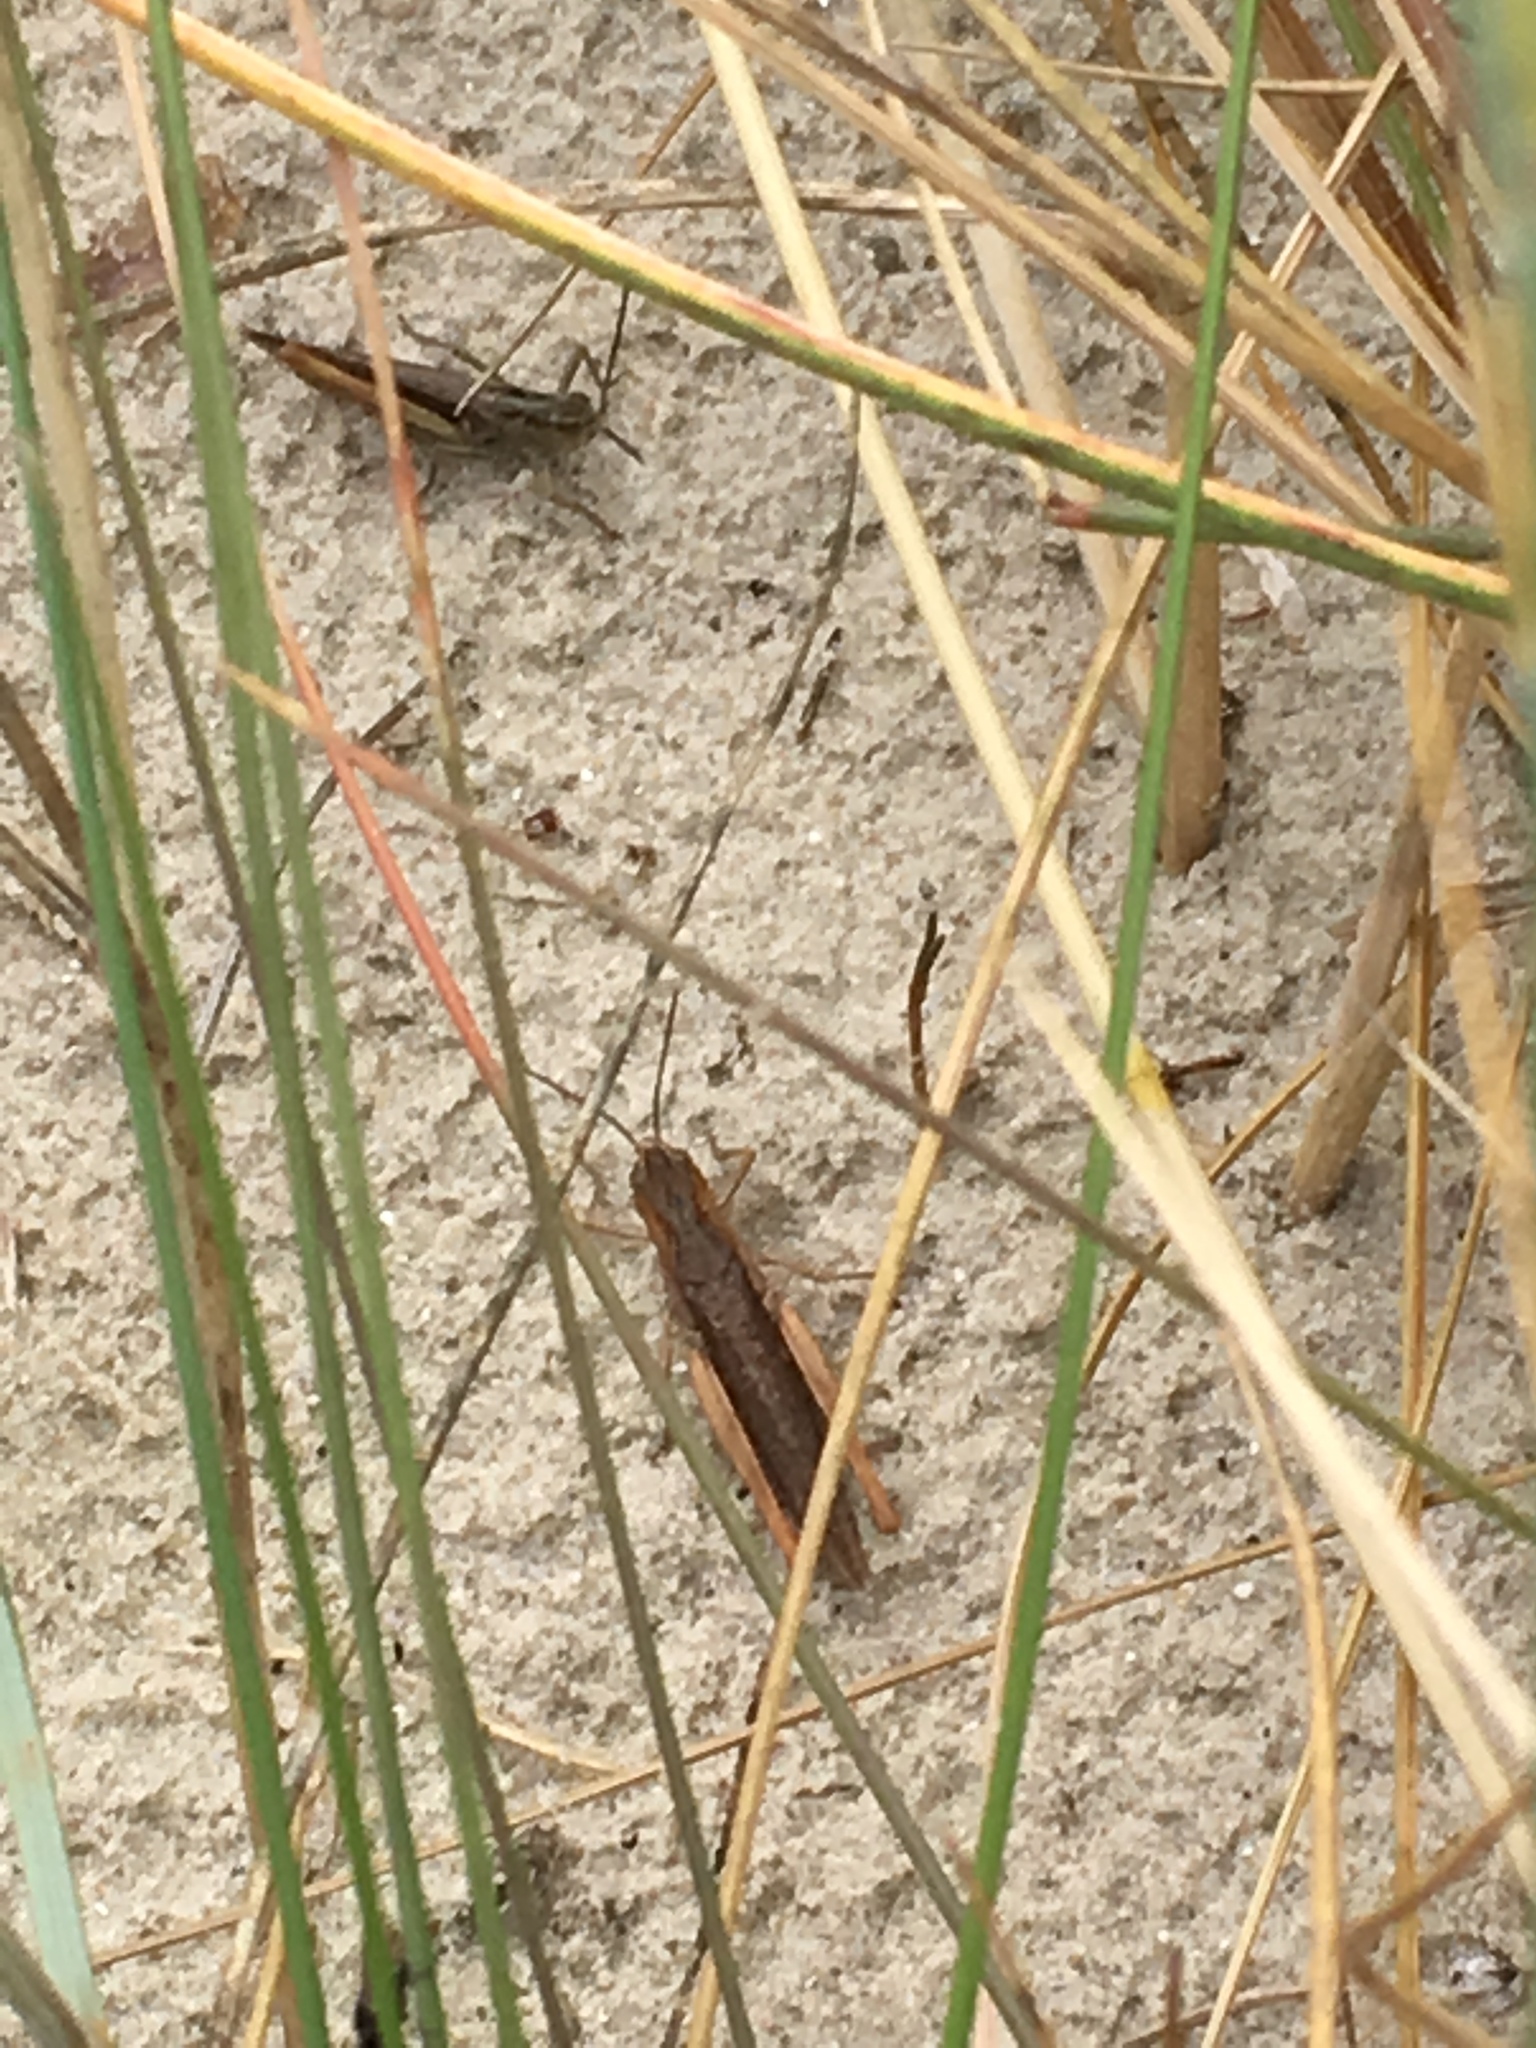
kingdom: Animalia
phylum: Arthropoda
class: Insecta
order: Orthoptera
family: Acrididae
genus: Chorthippus
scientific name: Chorthippus brunneus
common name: Field grasshopper
